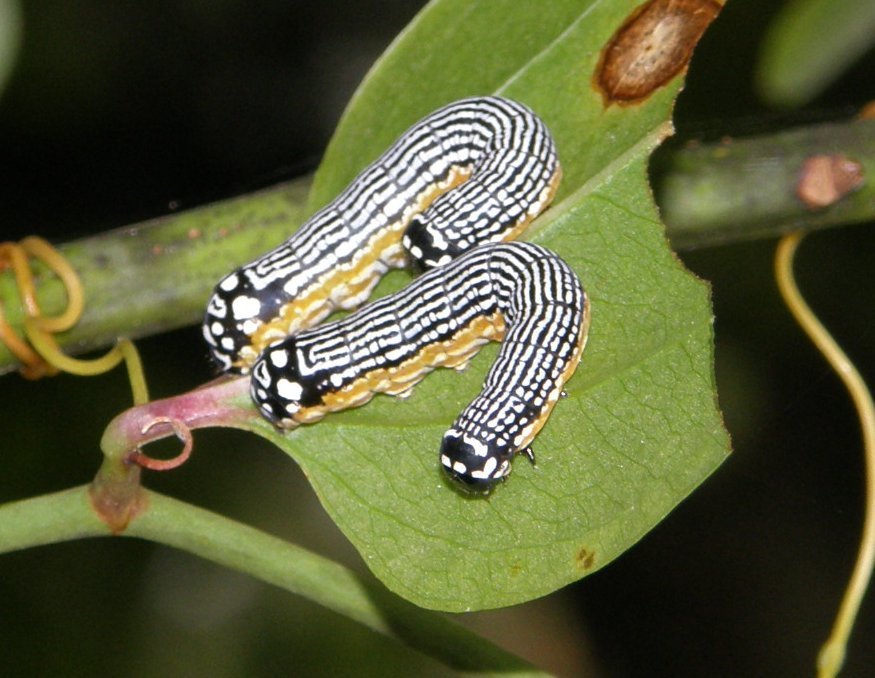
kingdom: Animalia
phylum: Arthropoda
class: Insecta
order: Lepidoptera
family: Noctuidae
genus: Phosphila
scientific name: Phosphila turbulenta
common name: Turbulent phosphila moth
